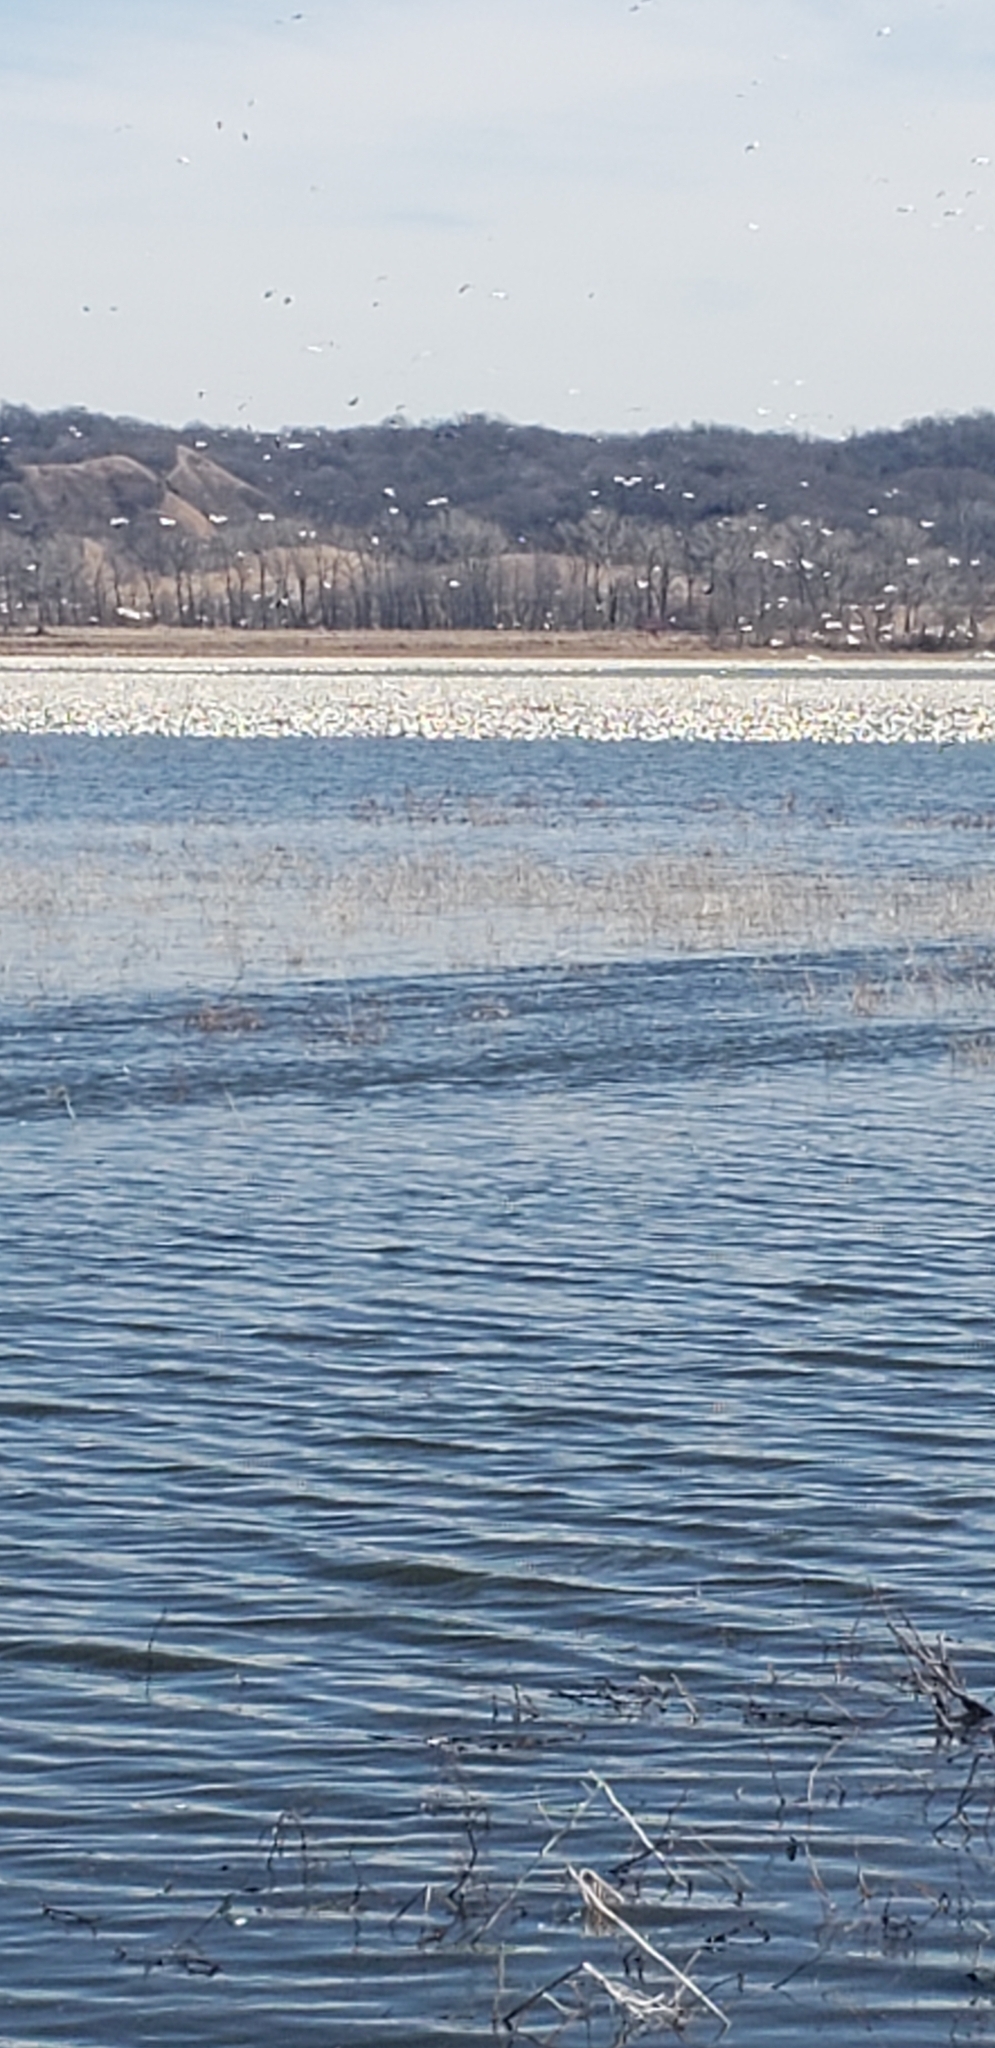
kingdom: Animalia
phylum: Chordata
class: Aves
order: Anseriformes
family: Anatidae
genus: Anser
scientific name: Anser caerulescens
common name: Snow goose
